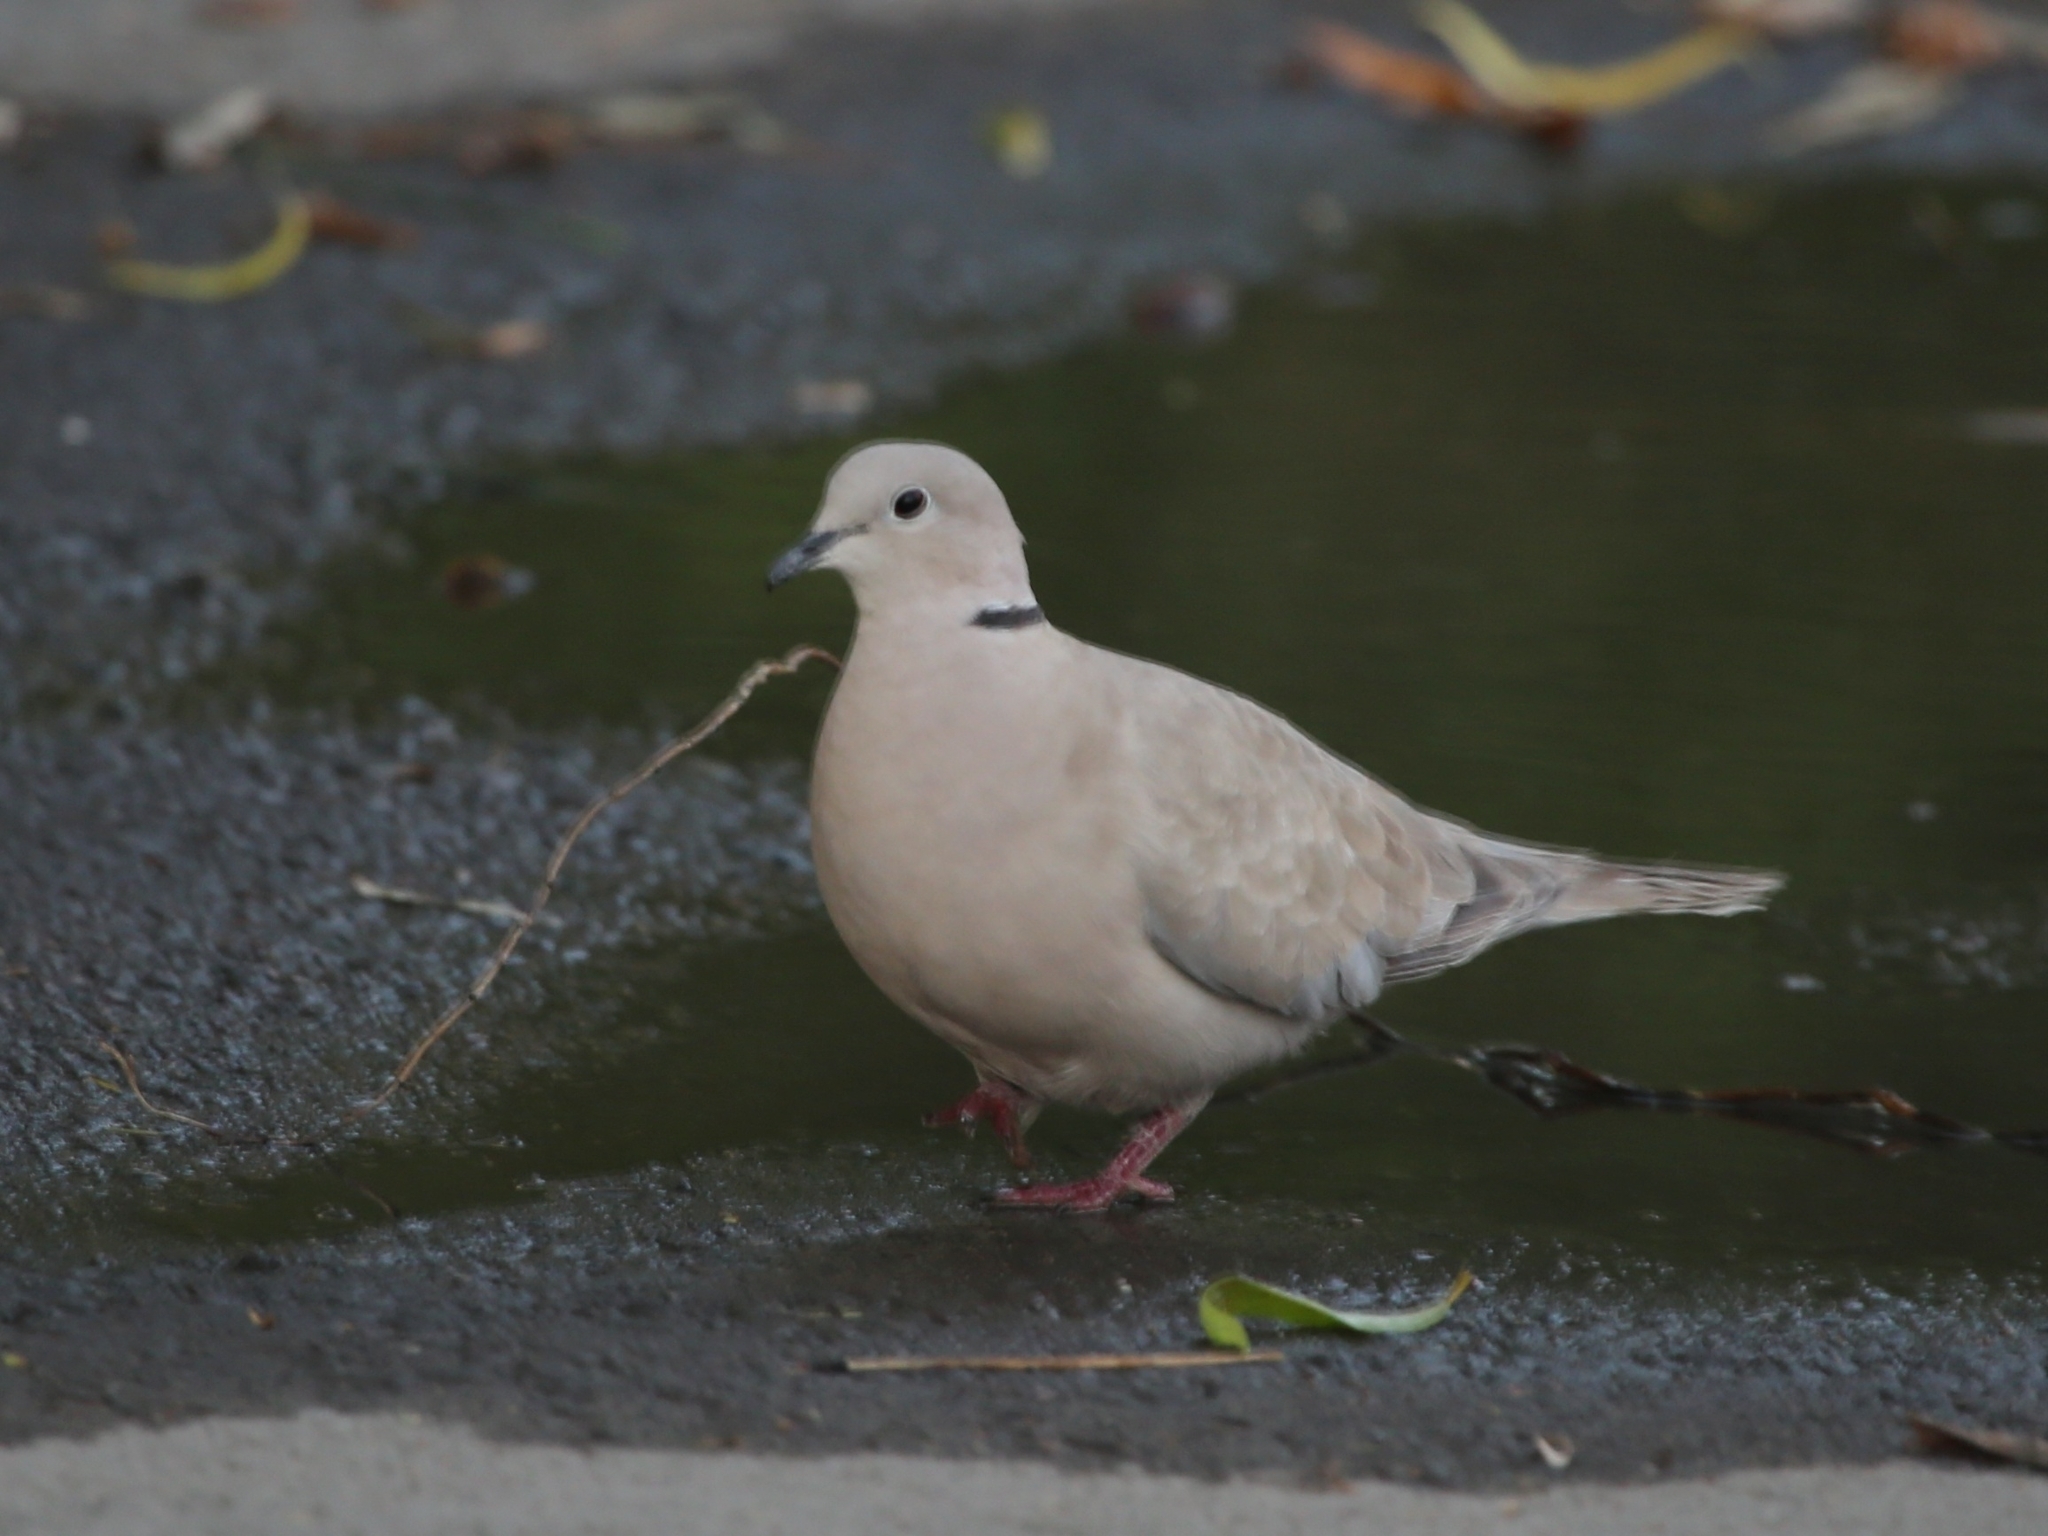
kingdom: Animalia
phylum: Chordata
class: Aves
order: Columbiformes
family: Columbidae
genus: Streptopelia
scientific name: Streptopelia decaocto
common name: Eurasian collared dove
